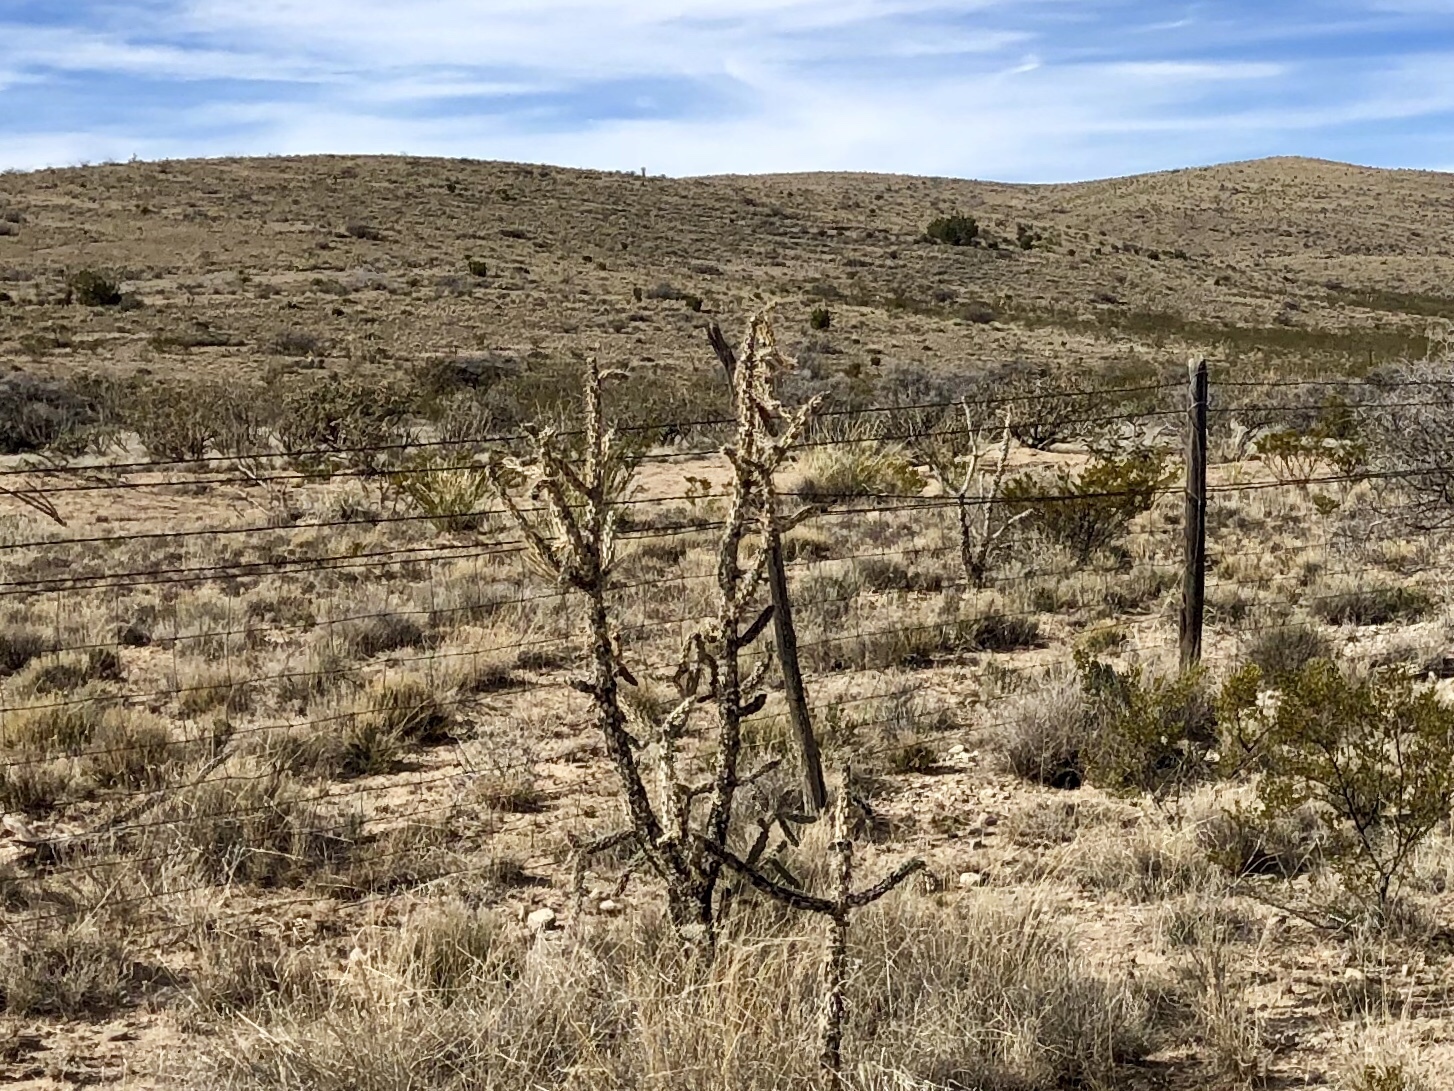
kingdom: Plantae
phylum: Tracheophyta
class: Magnoliopsida
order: Caryophyllales
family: Cactaceae
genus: Cylindropuntia
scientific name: Cylindropuntia imbricata
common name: Candelabrum cactus
